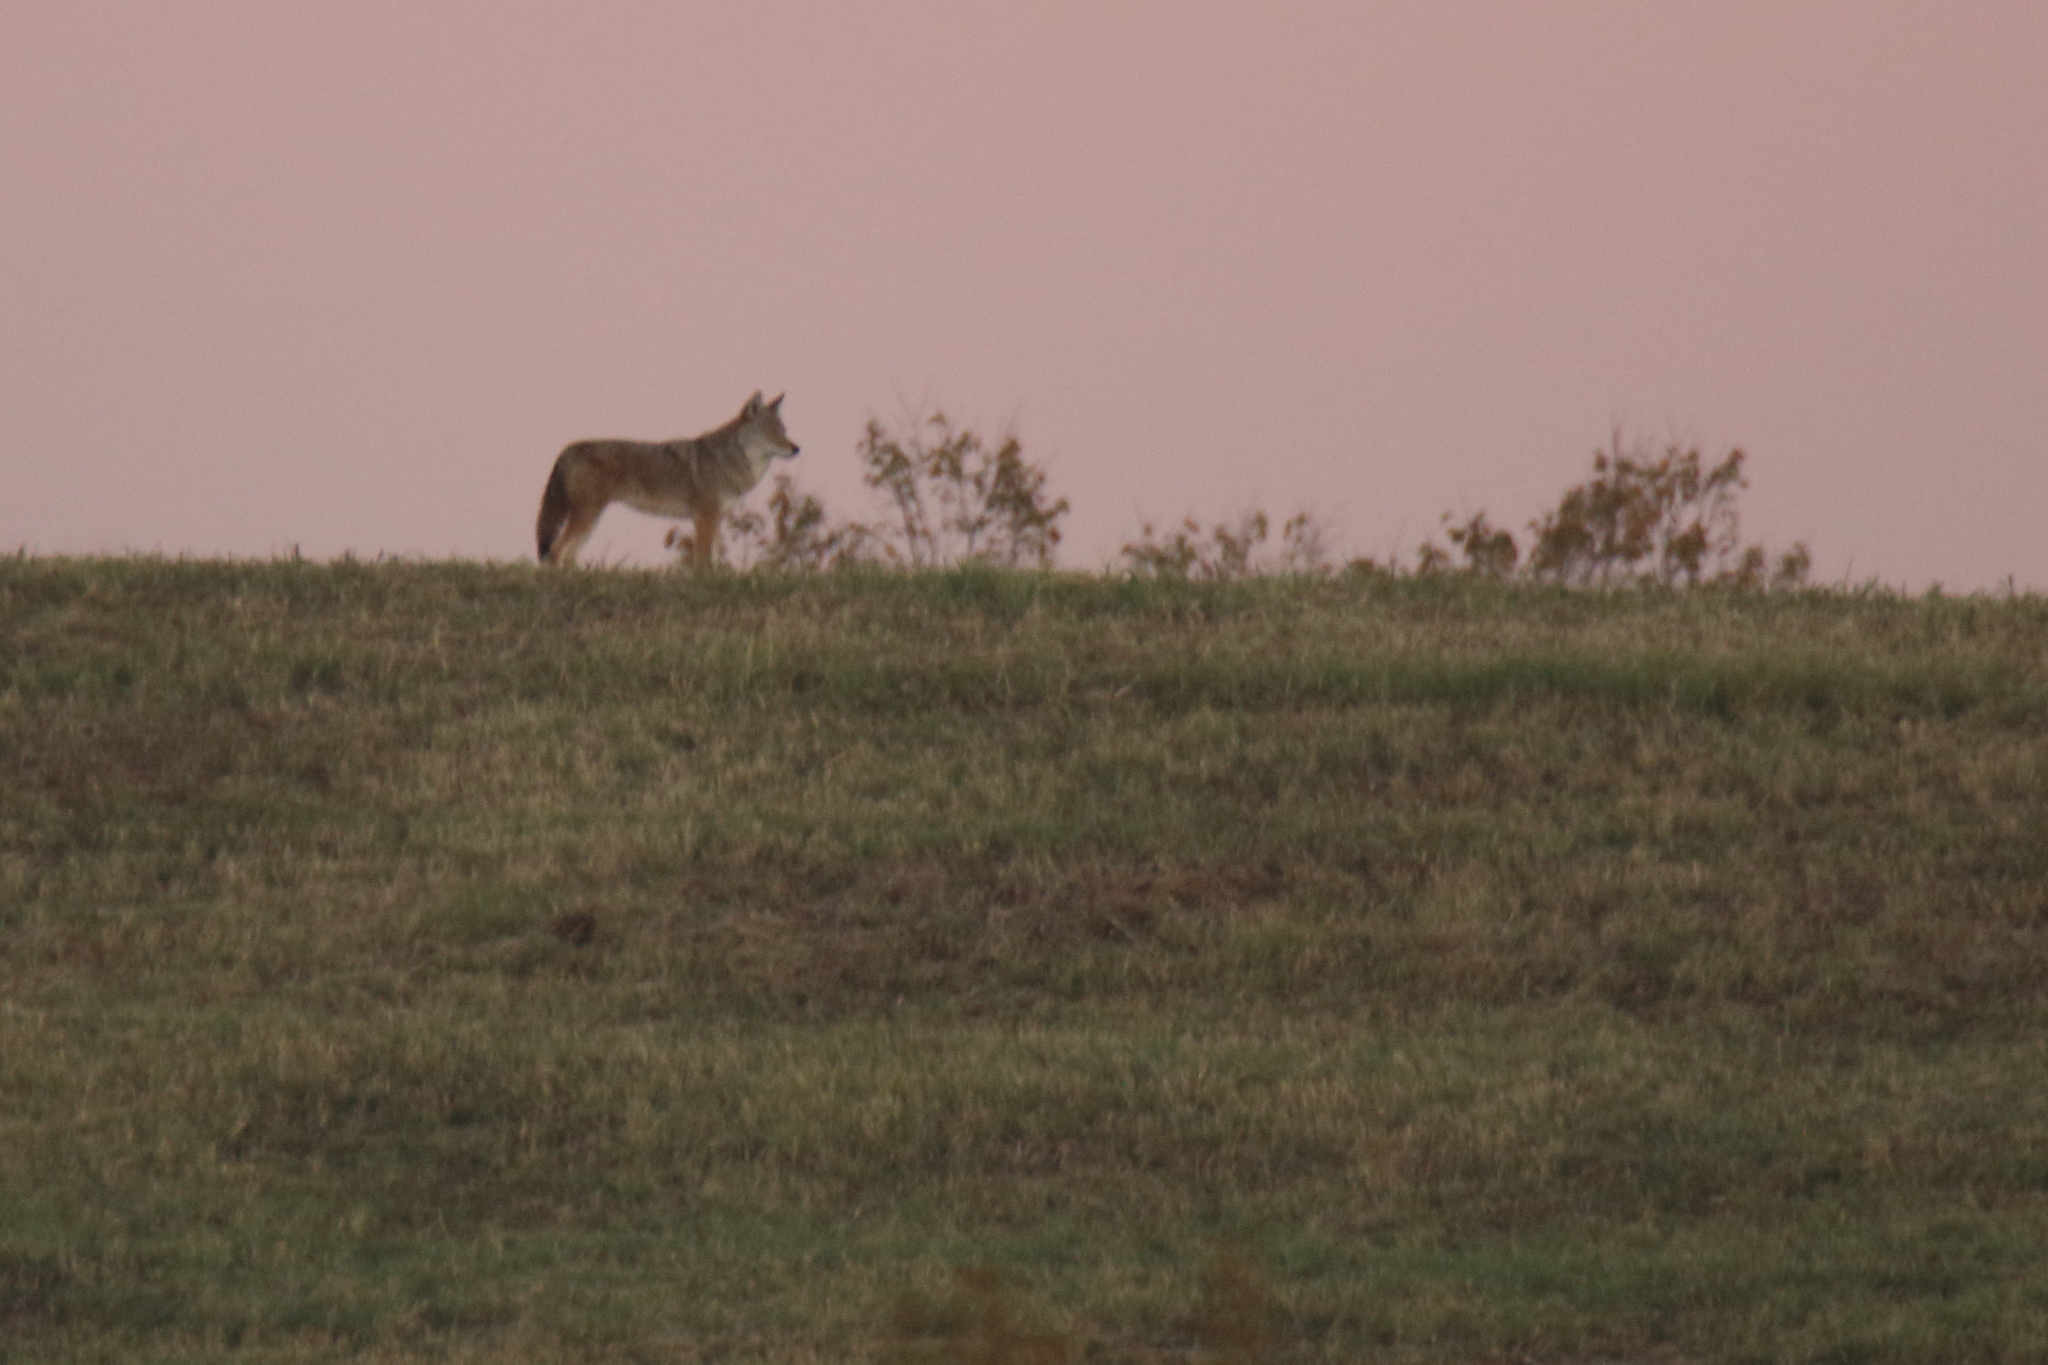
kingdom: Animalia
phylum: Chordata
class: Mammalia
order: Carnivora
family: Canidae
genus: Canis
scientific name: Canis latrans
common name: Coyote
